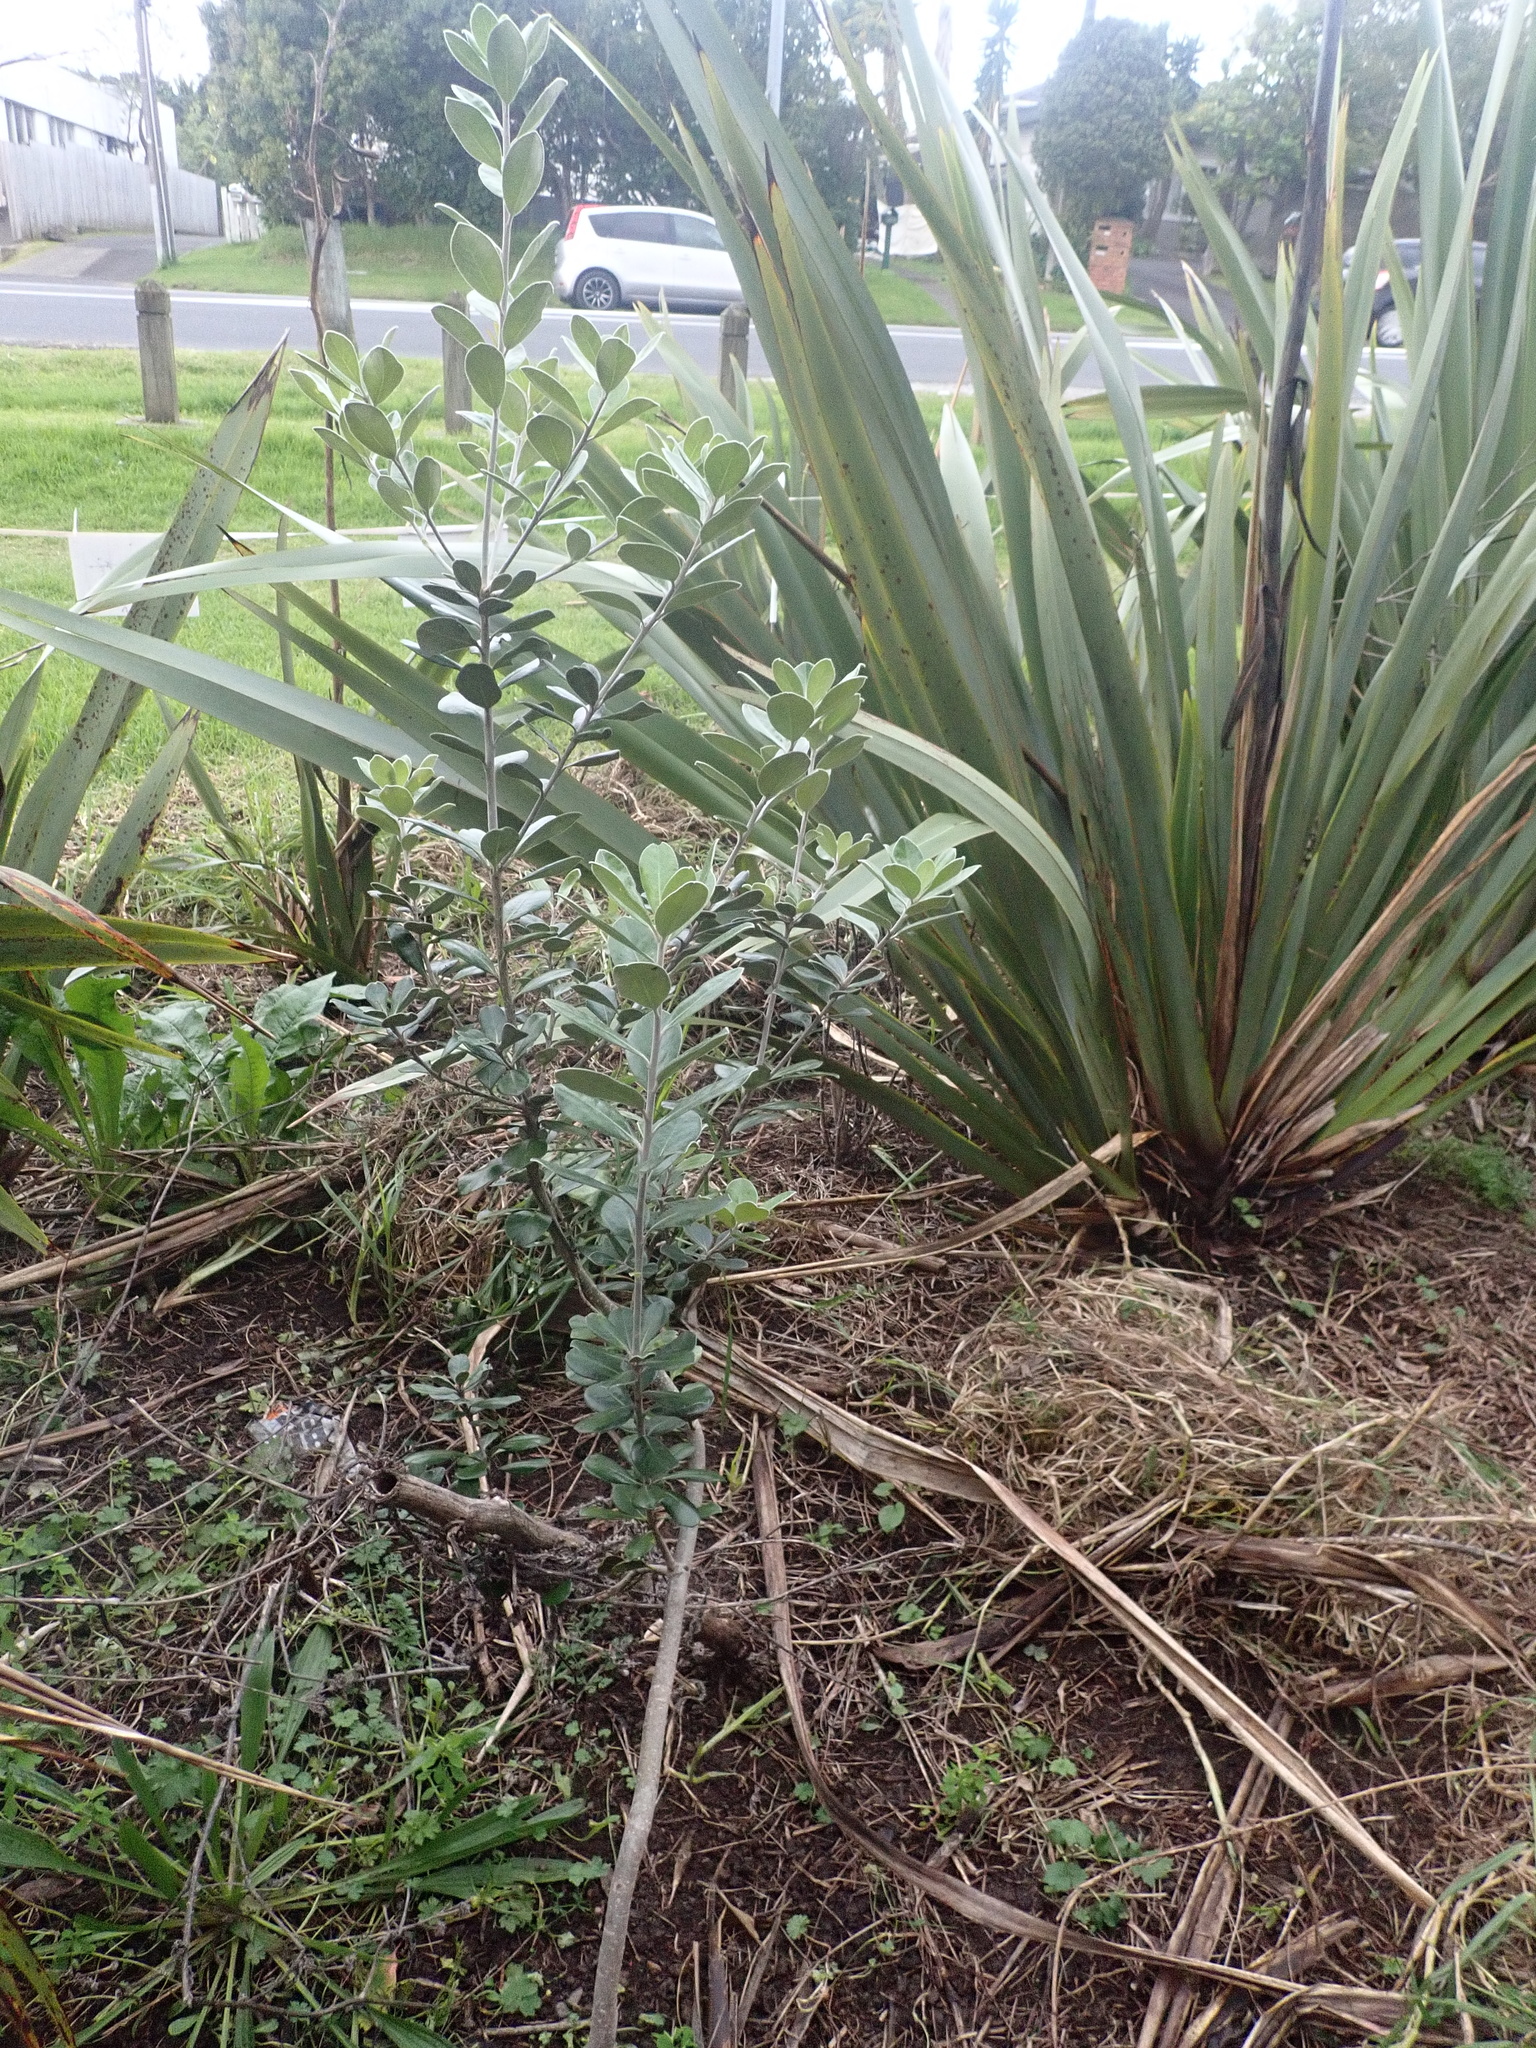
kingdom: Plantae
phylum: Tracheophyta
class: Magnoliopsida
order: Apiales
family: Pittosporaceae
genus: Pittosporum
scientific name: Pittosporum crassifolium
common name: Karo
